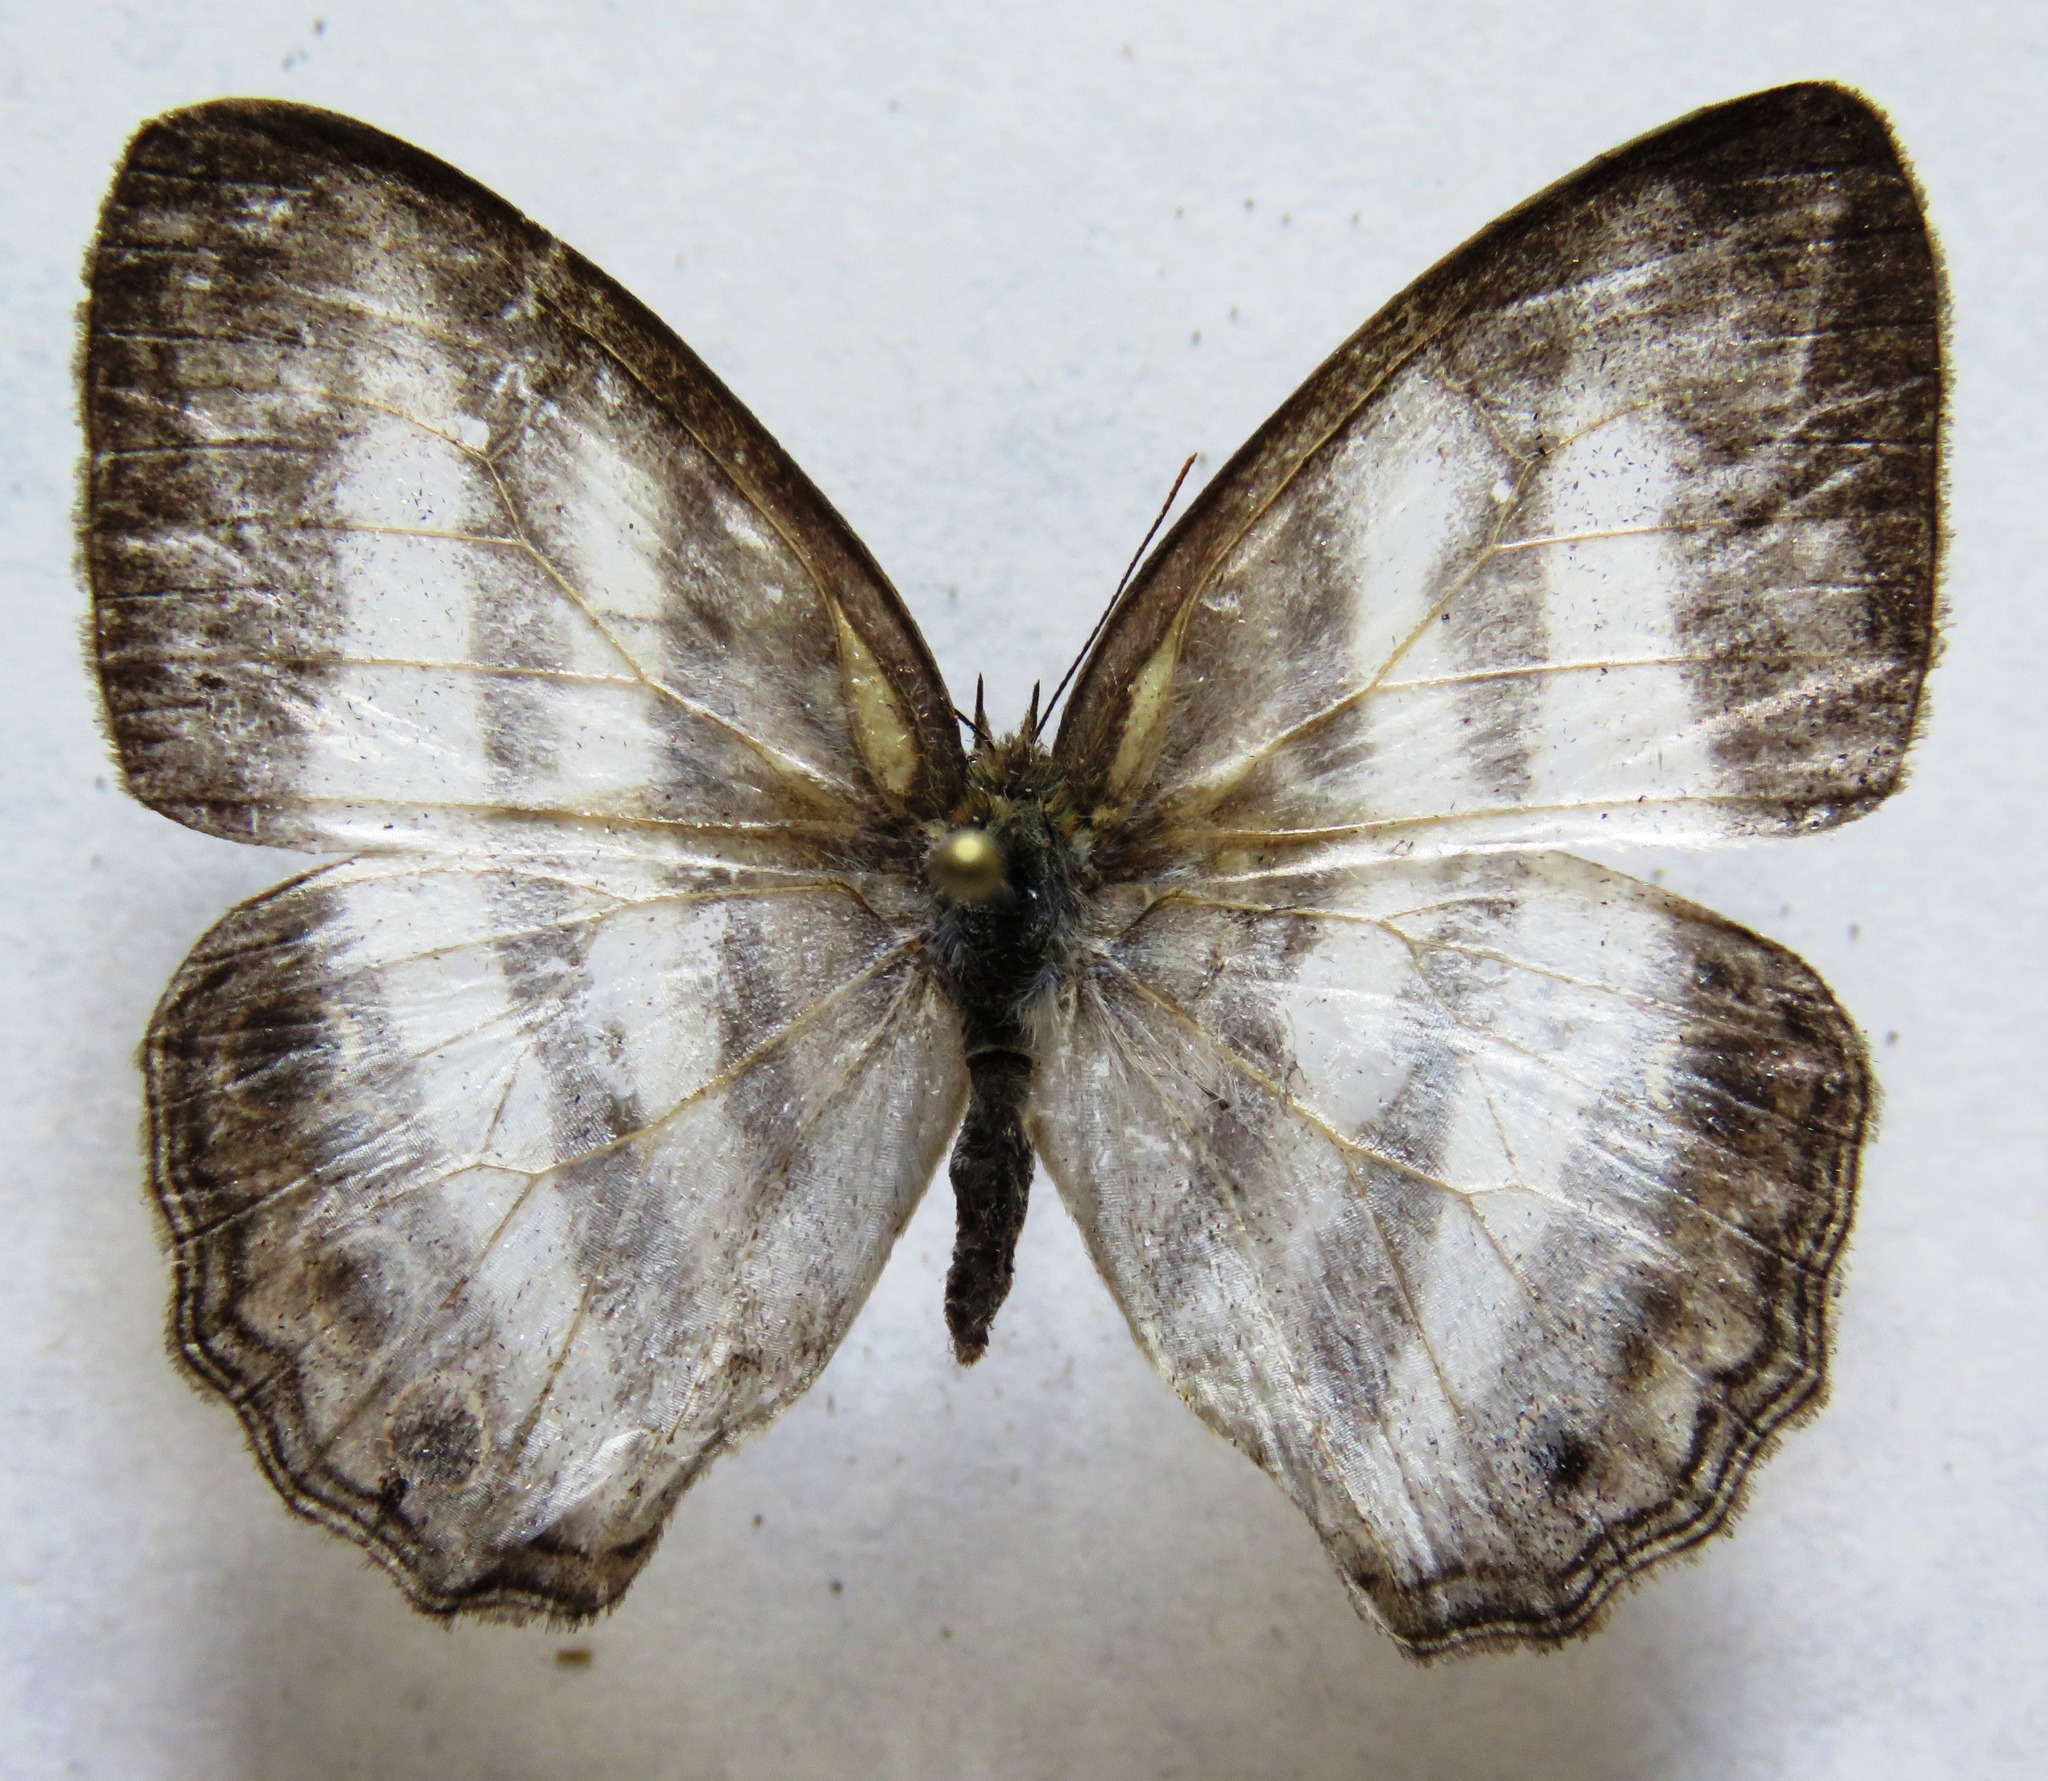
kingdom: Animalia
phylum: Arthropoda
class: Insecta
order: Lepidoptera
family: Nymphalidae
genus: Pareuptychia
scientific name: Pareuptychia hesione
